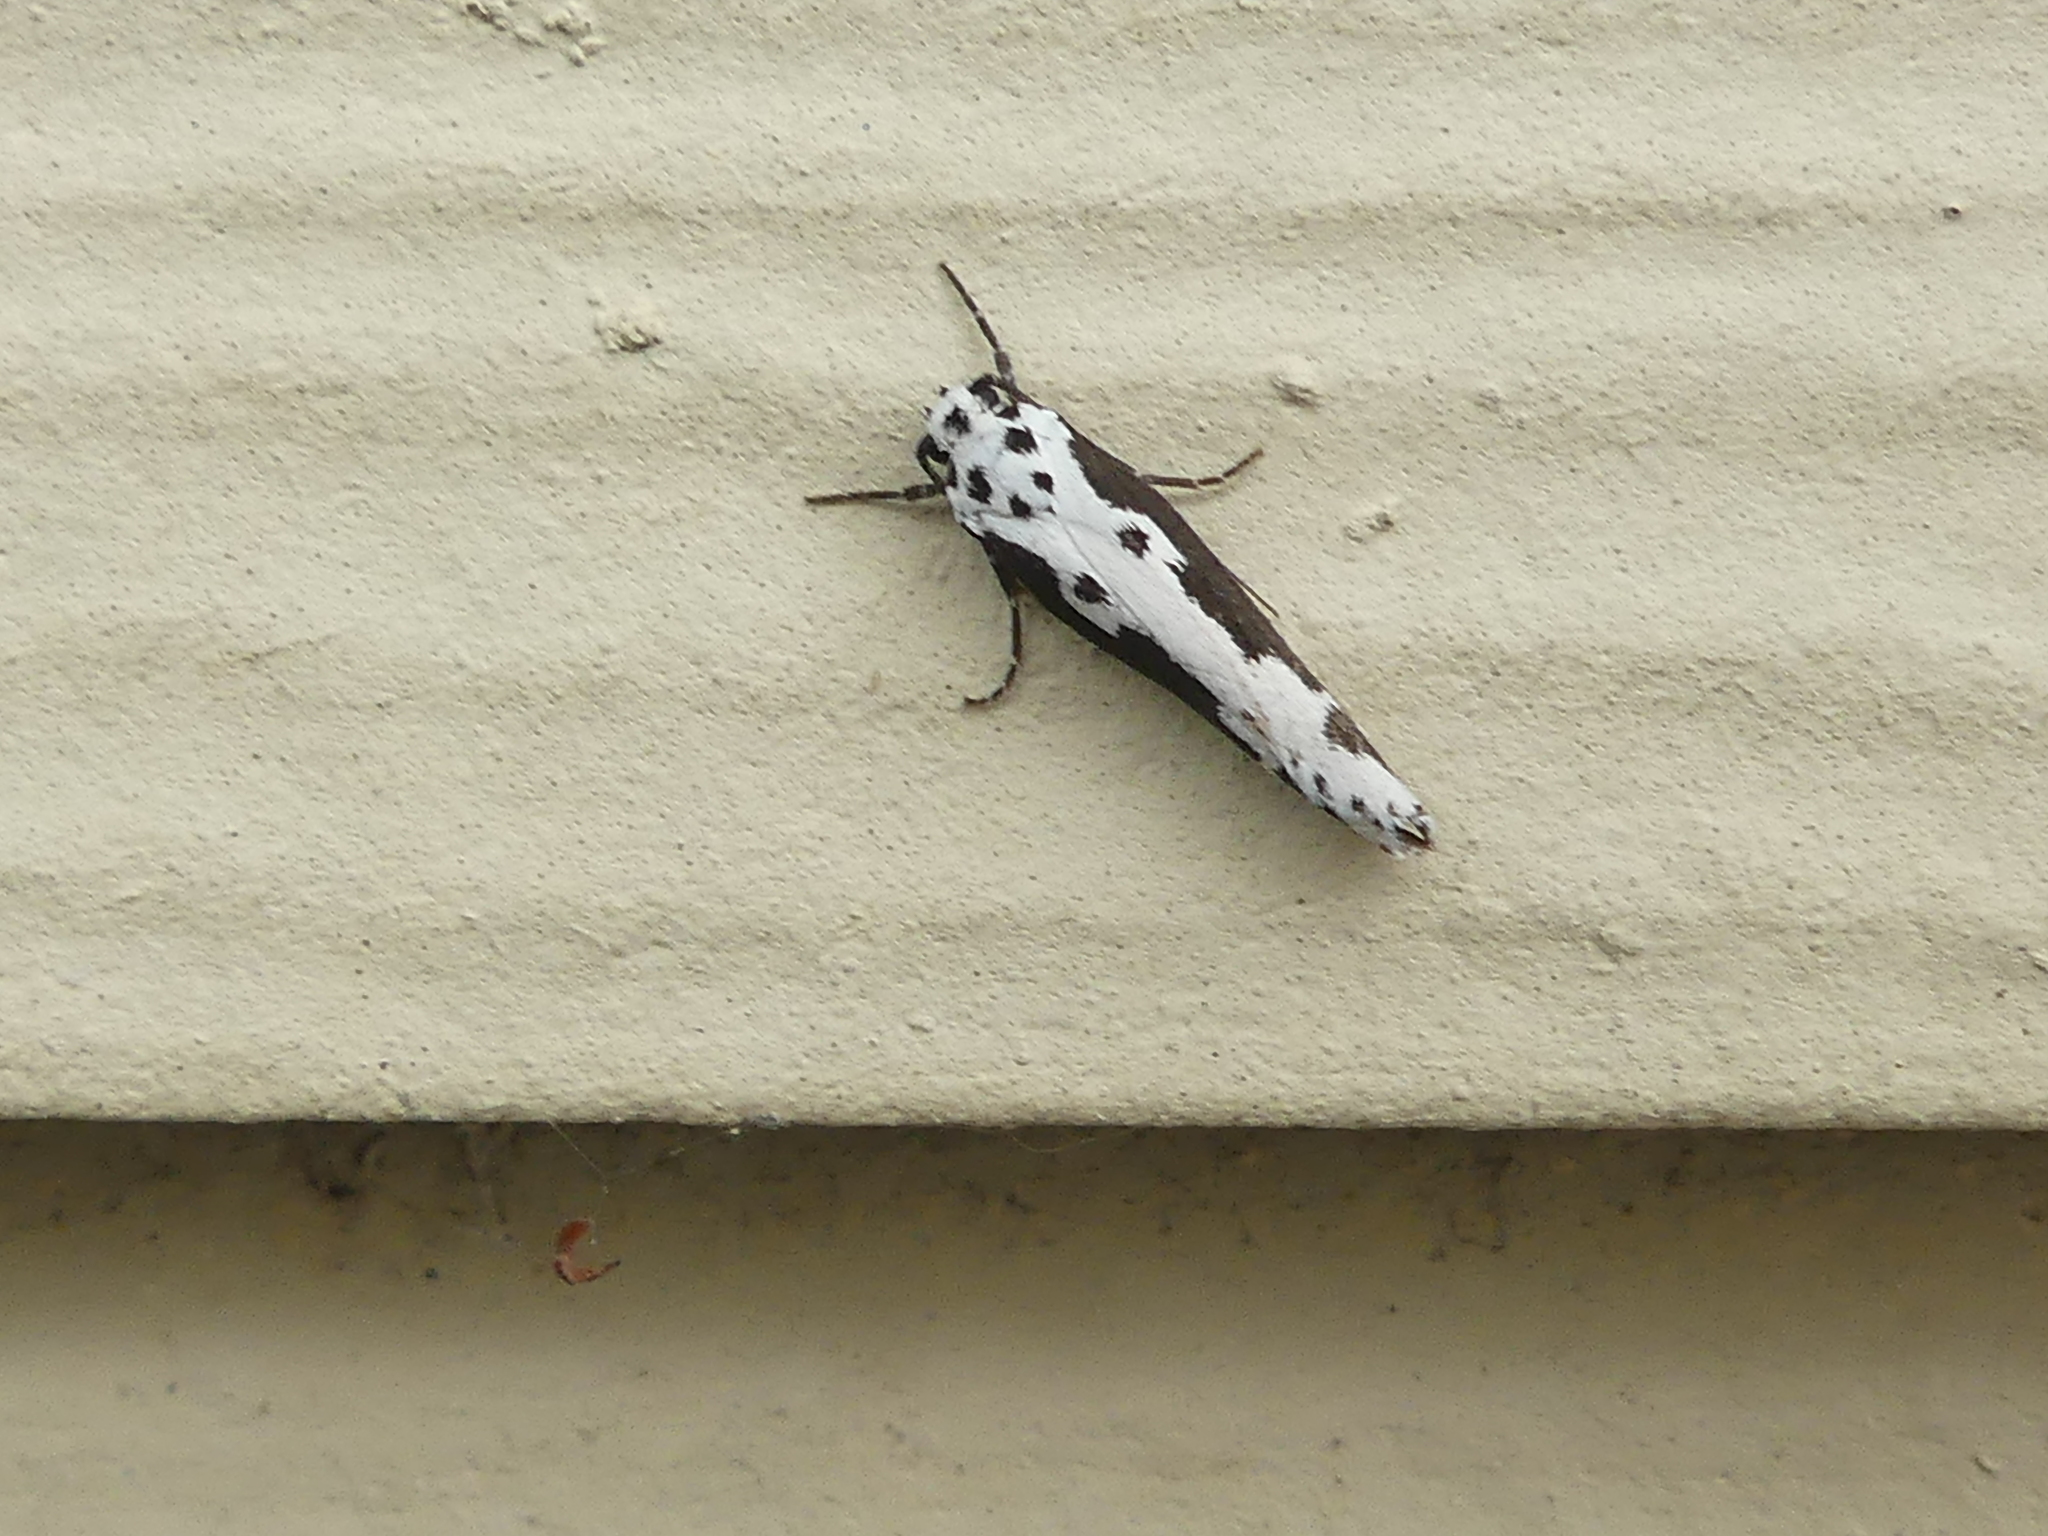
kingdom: Animalia
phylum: Arthropoda
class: Insecta
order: Lepidoptera
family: Ethmiidae
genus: Ethmia
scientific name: Ethmia semilugens
